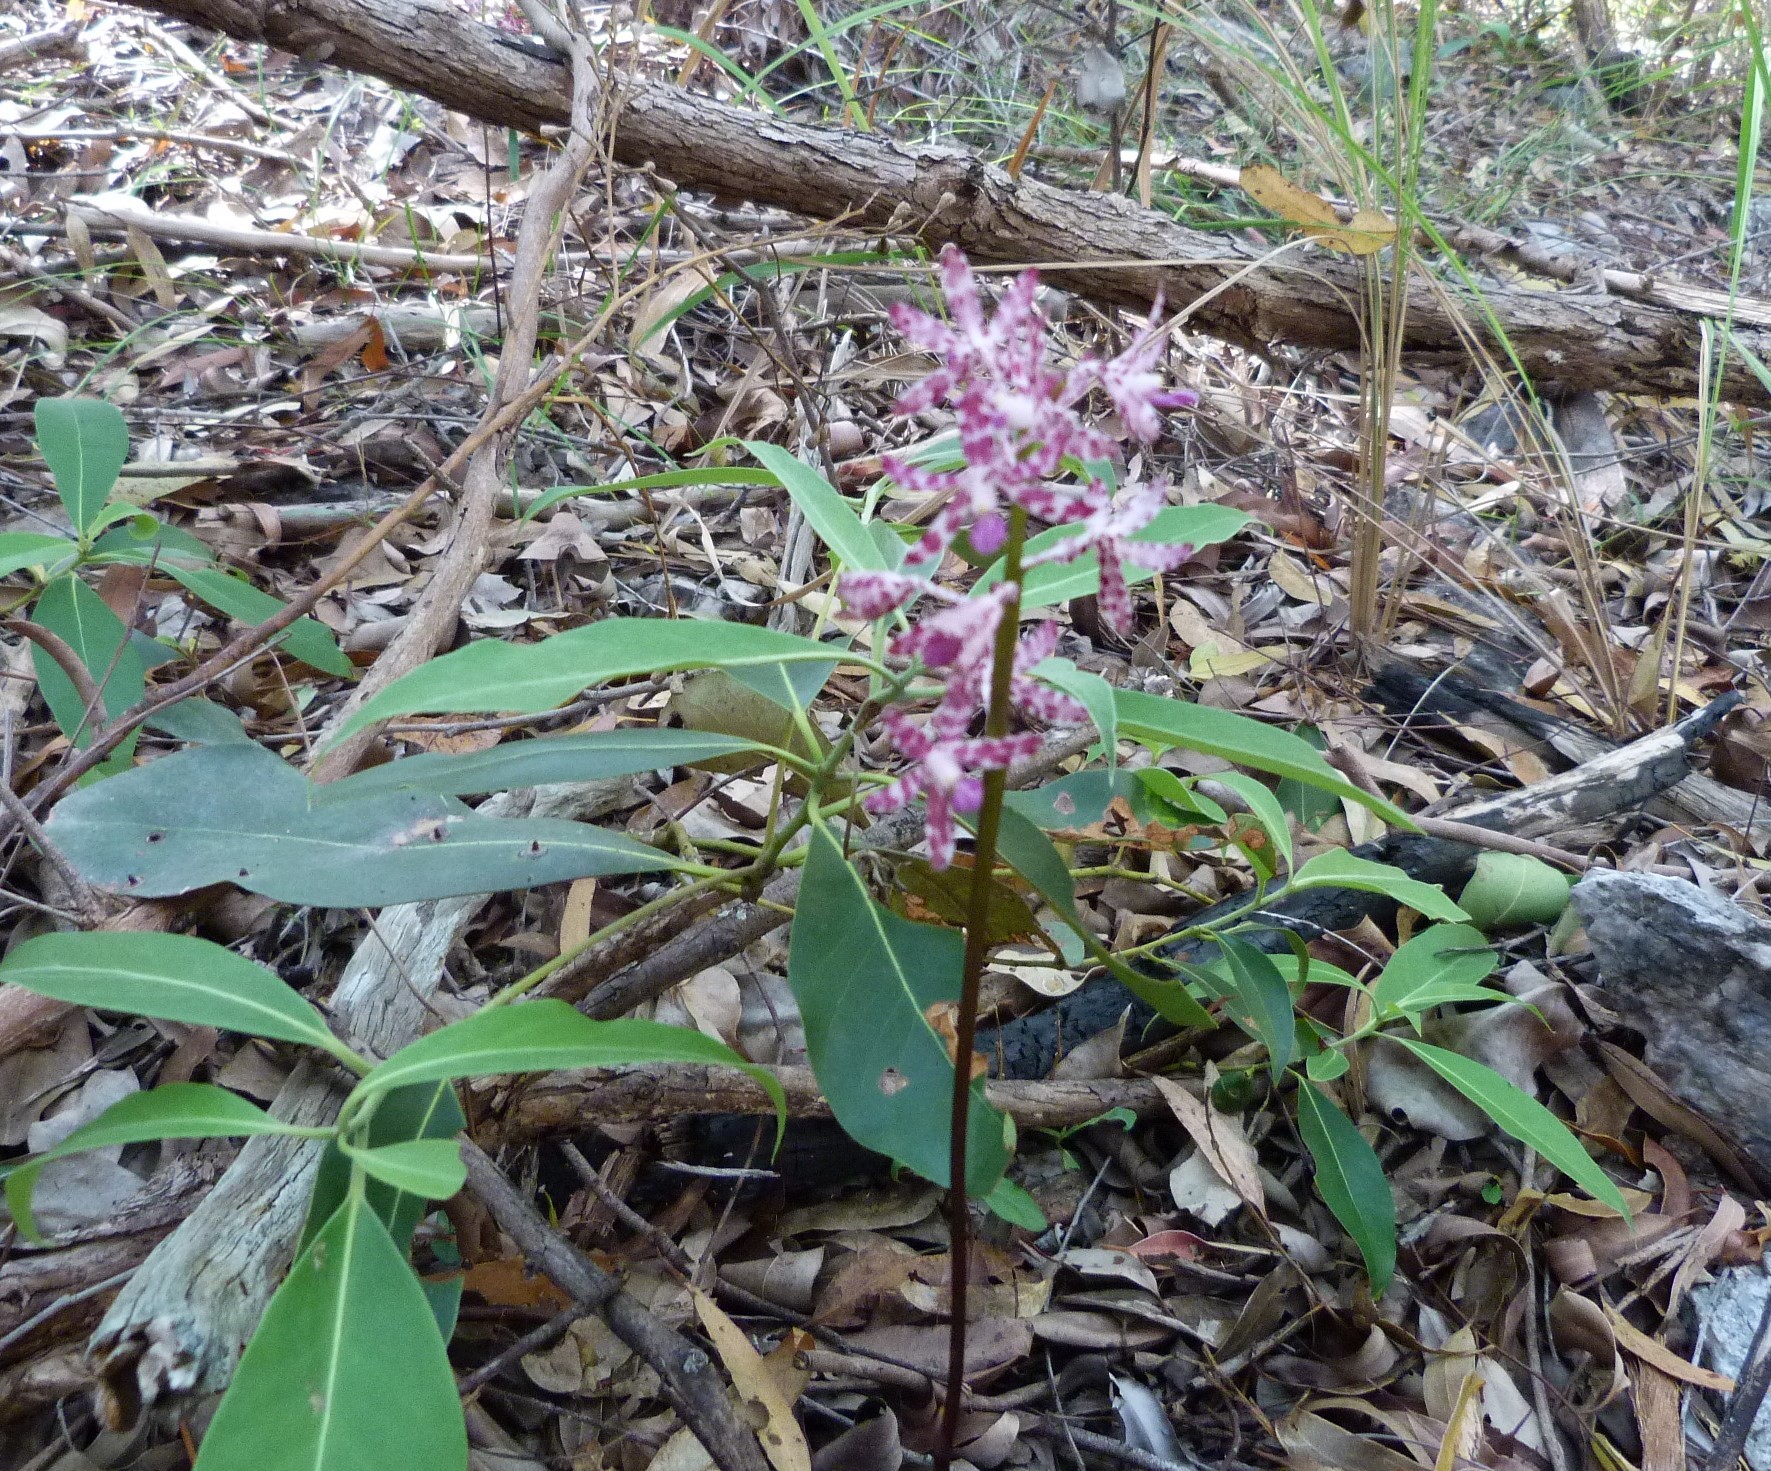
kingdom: Plantae
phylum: Tracheophyta
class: Liliopsida
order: Asparagales
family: Orchidaceae
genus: Dipodium
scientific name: Dipodium variegatum
